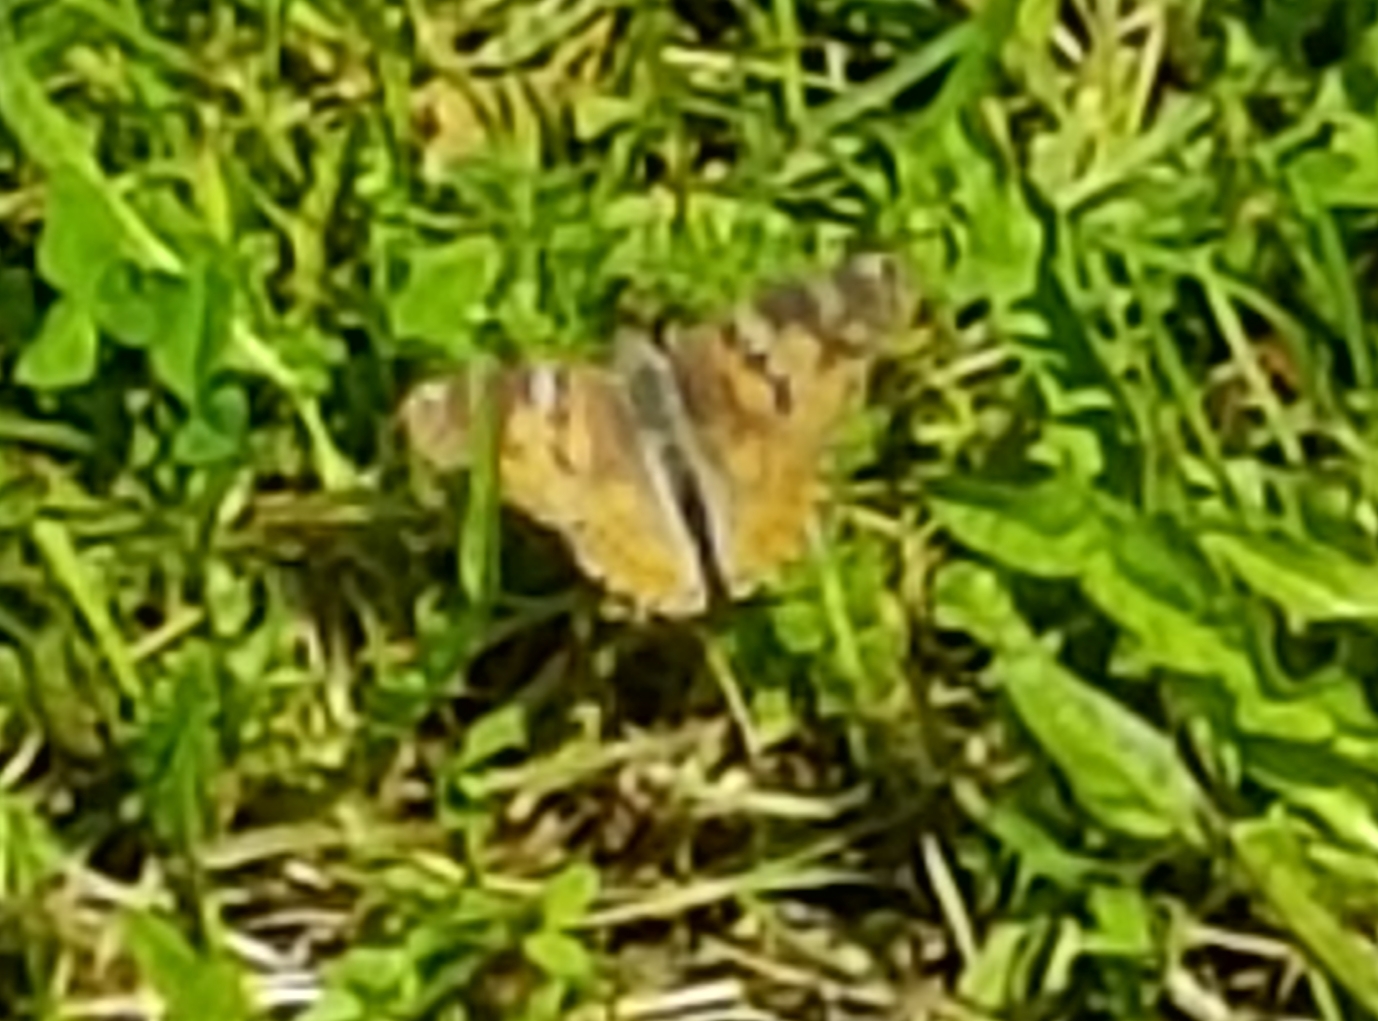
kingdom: Animalia
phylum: Arthropoda
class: Insecta
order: Lepidoptera
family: Nymphalidae
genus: Vanessa
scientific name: Vanessa cardui
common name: Painted lady
